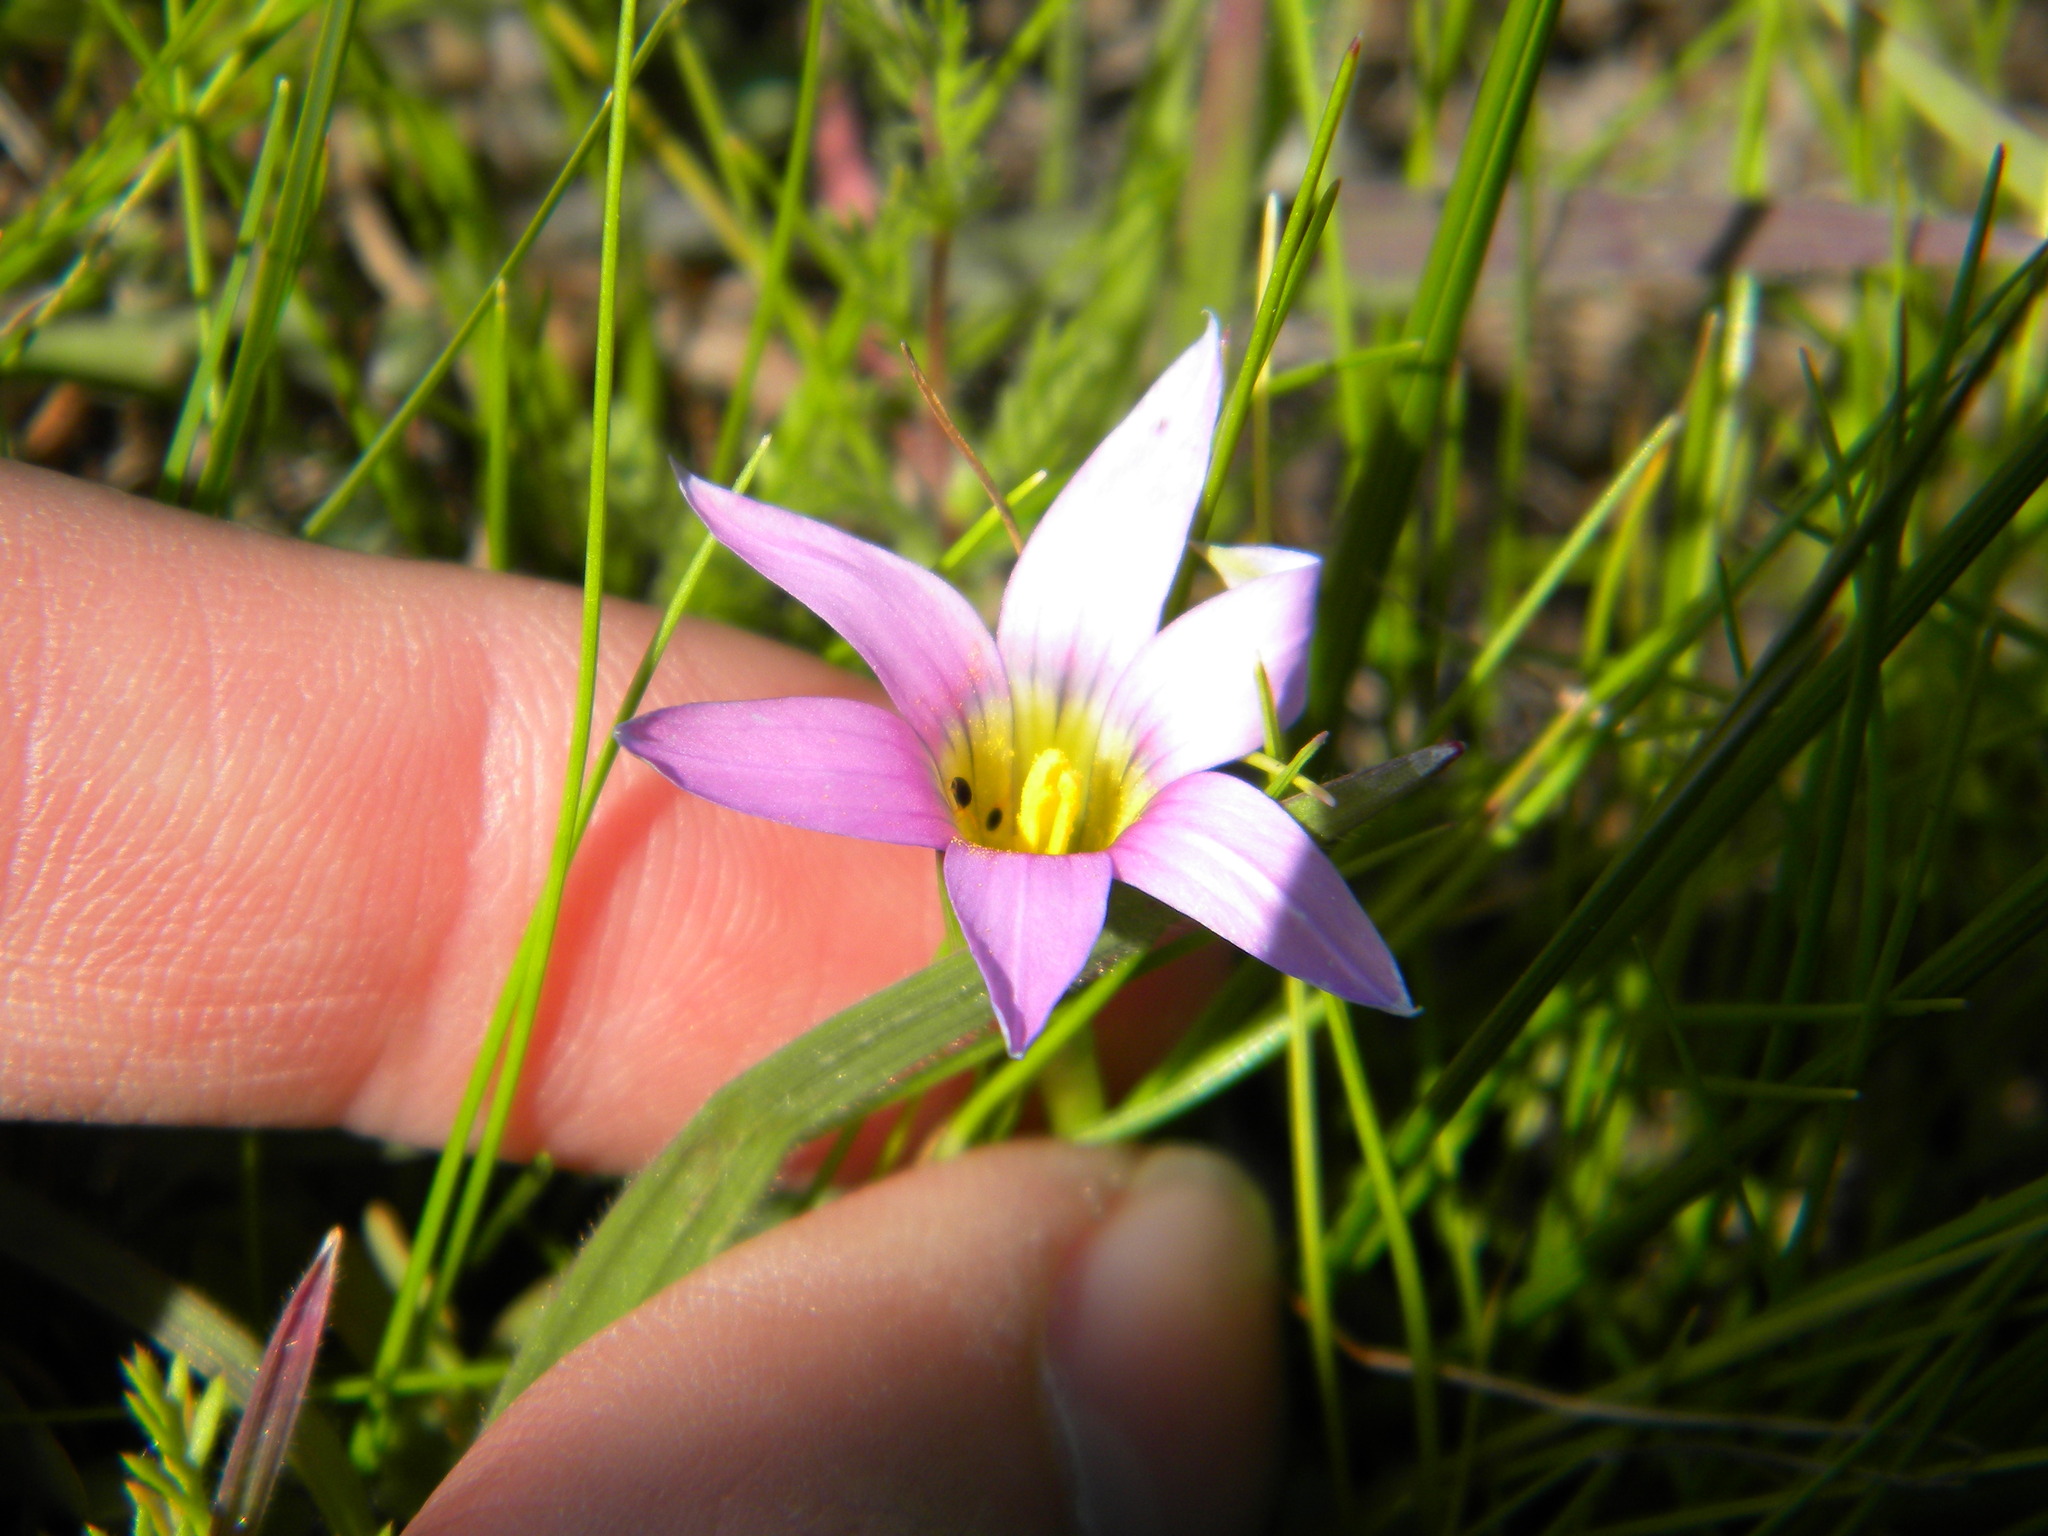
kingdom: Plantae
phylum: Tracheophyta
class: Liliopsida
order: Asparagales
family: Iridaceae
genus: Romulea
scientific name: Romulea rosea
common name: Oniongrass
